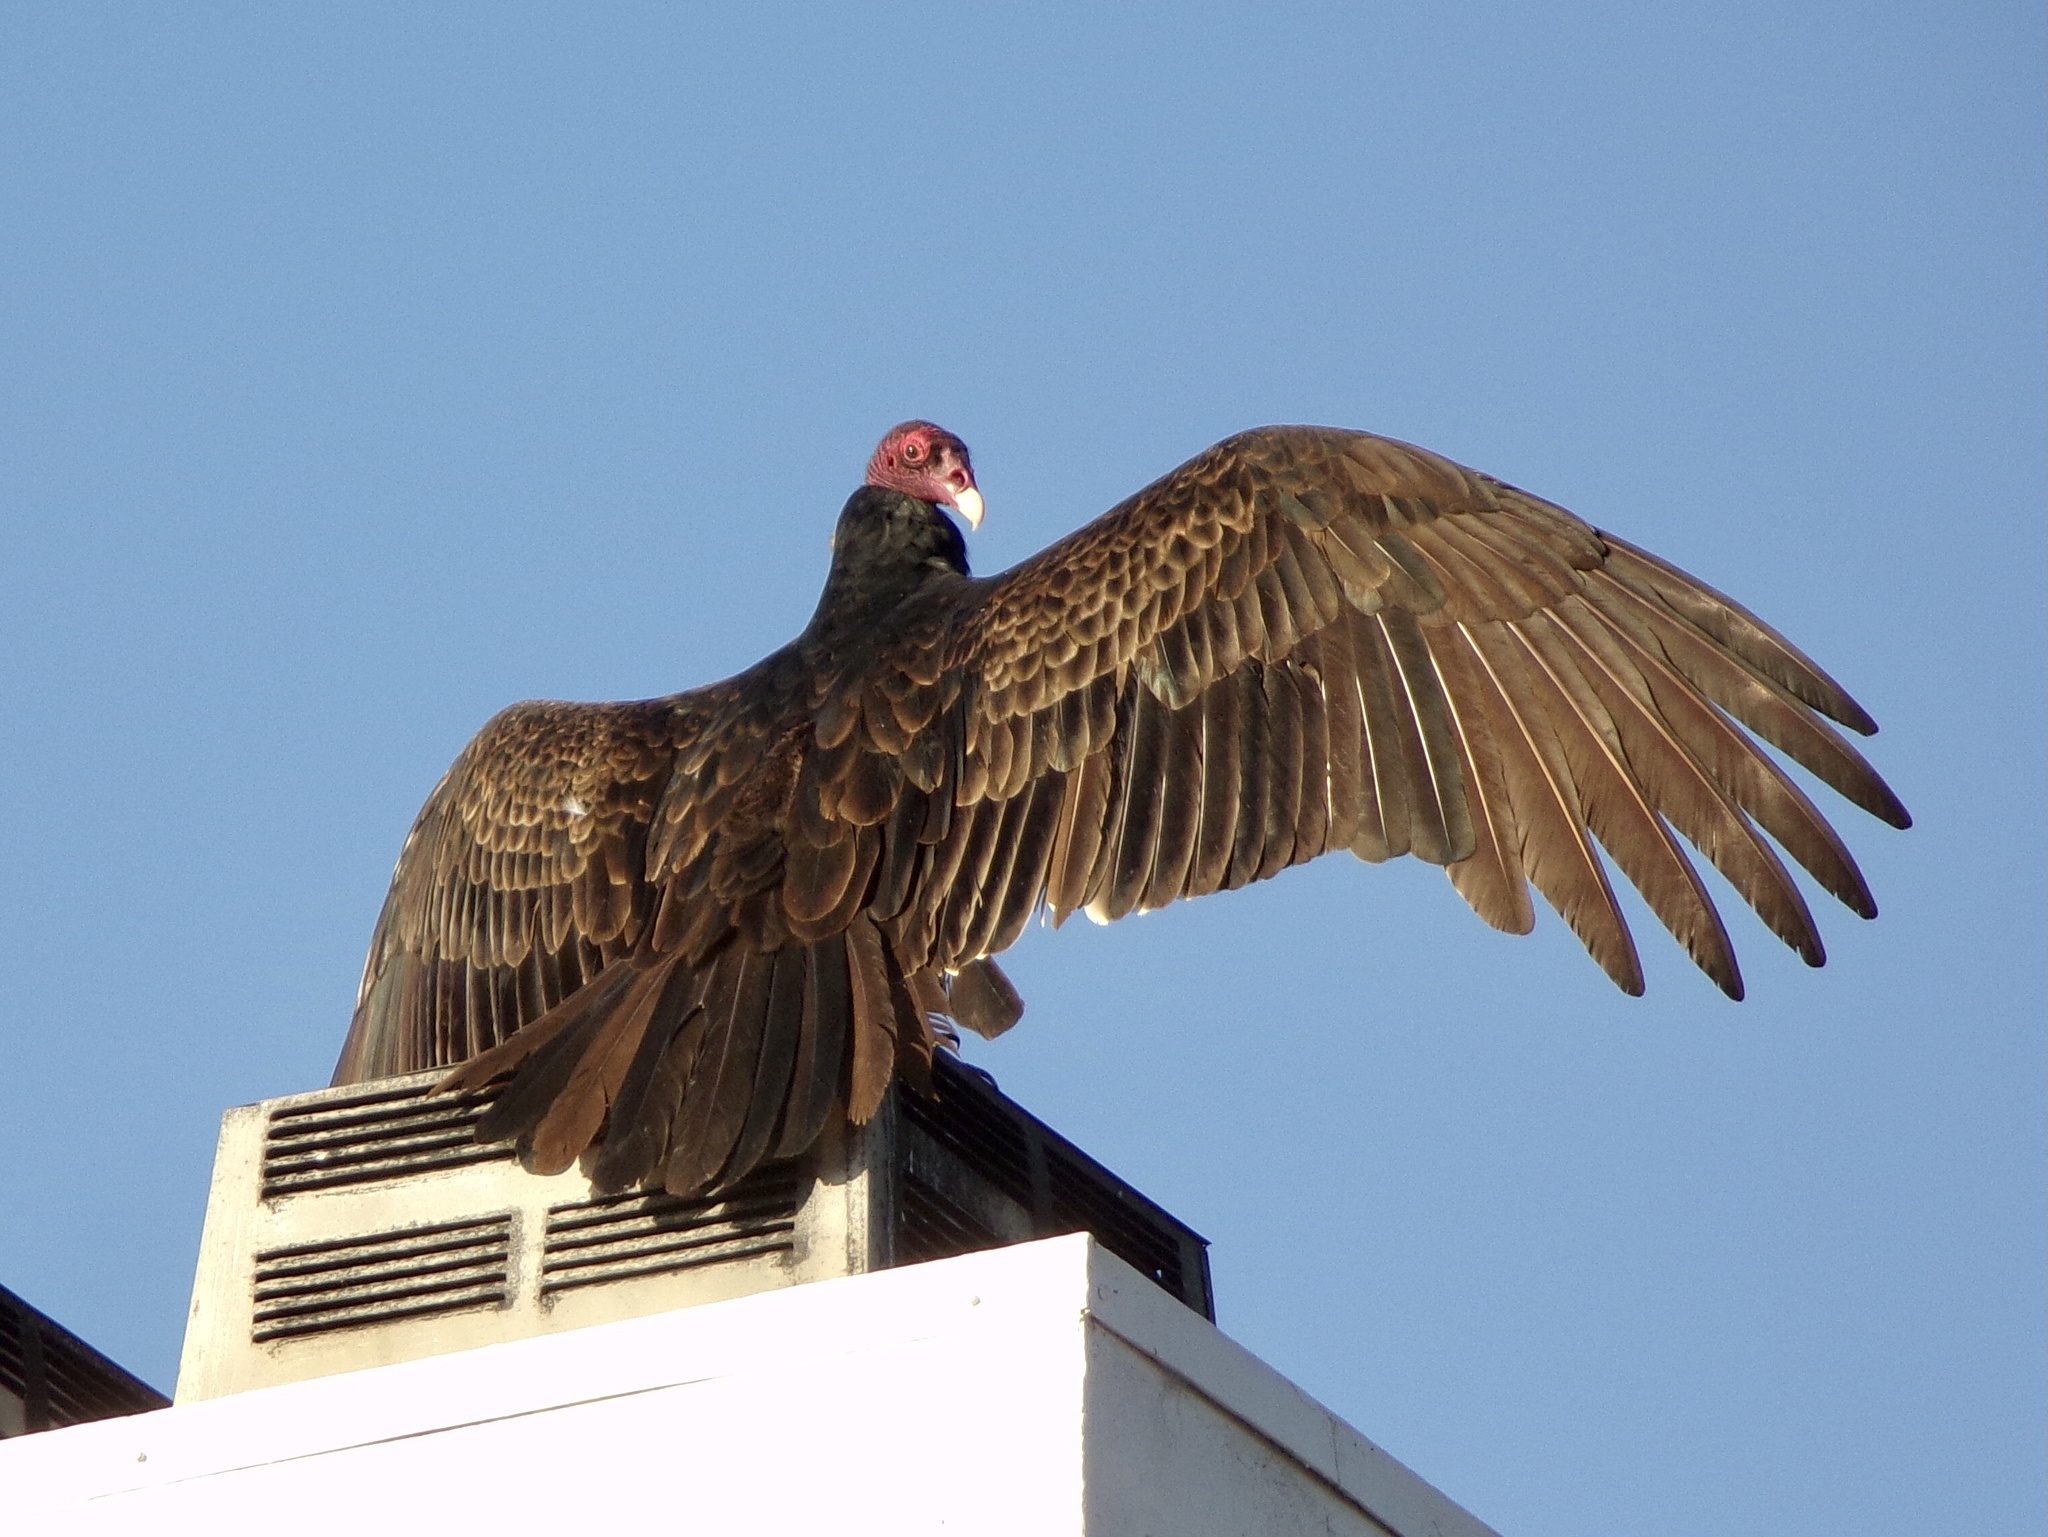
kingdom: Animalia
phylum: Chordata
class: Aves
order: Accipitriformes
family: Cathartidae
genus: Cathartes
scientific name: Cathartes aura
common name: Turkey vulture
